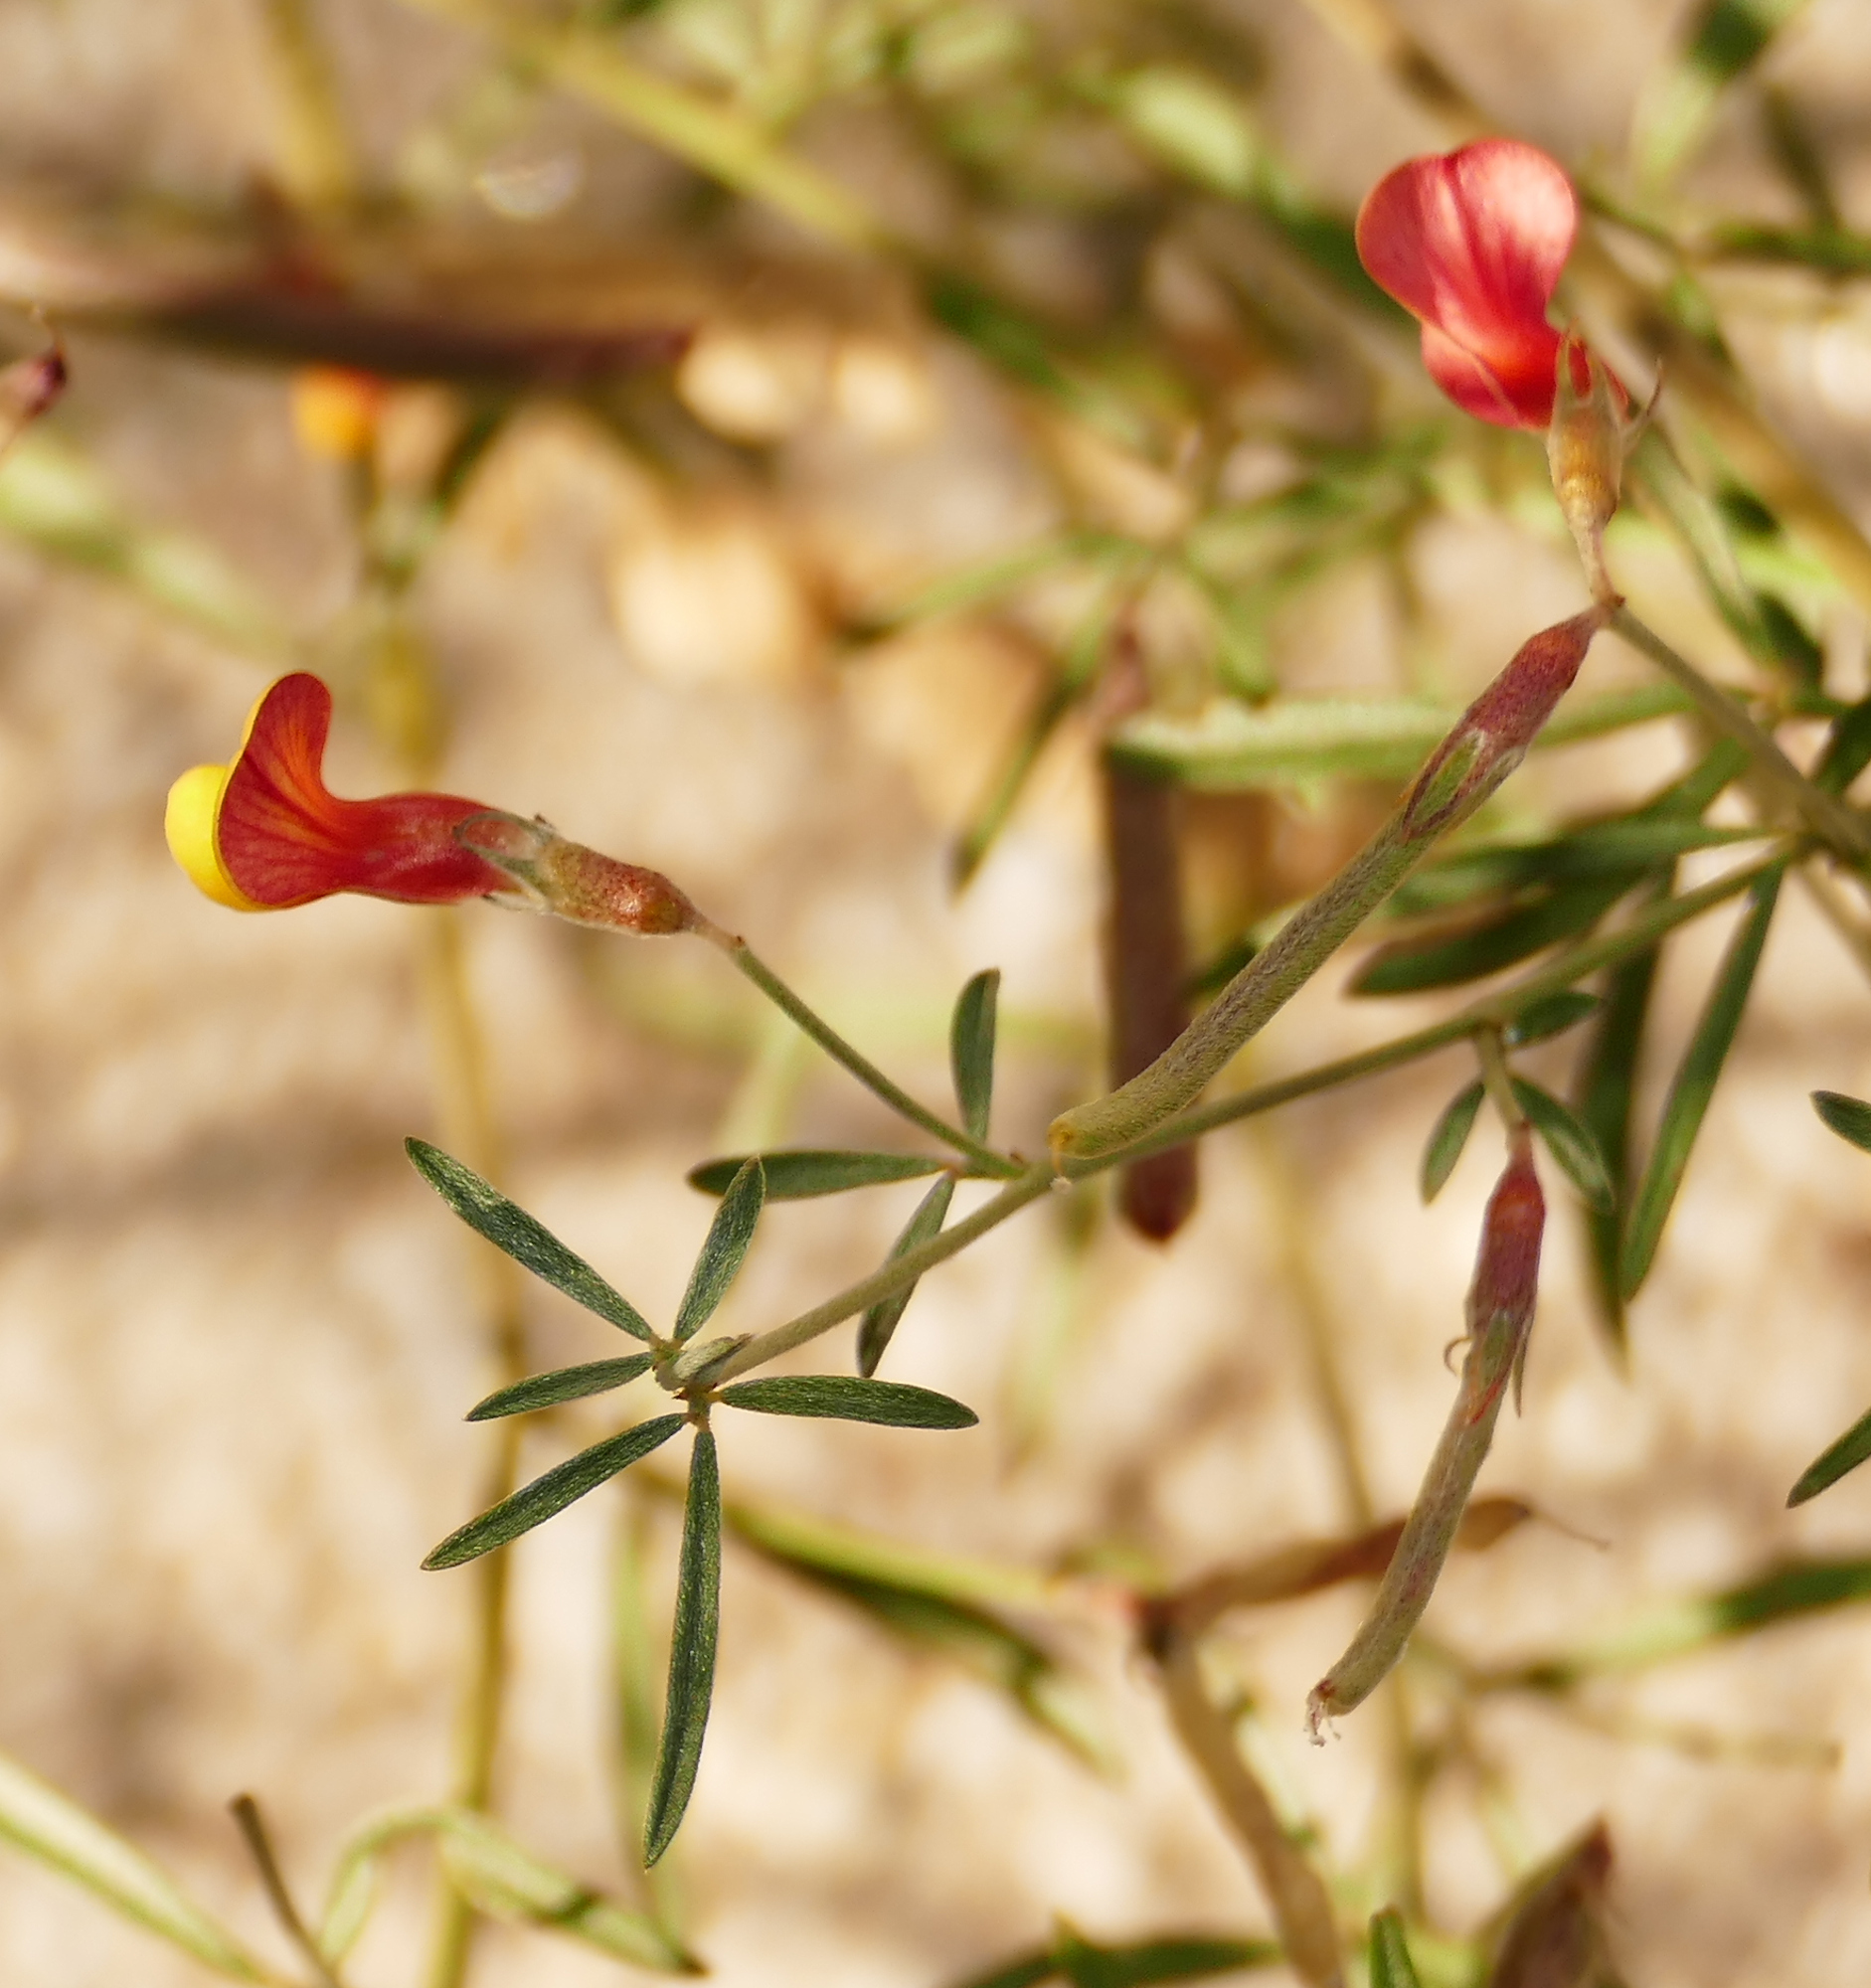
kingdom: Plantae
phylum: Tracheophyta
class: Magnoliopsida
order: Fabales
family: Fabaceae
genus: Acmispon
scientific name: Acmispon oroboides
